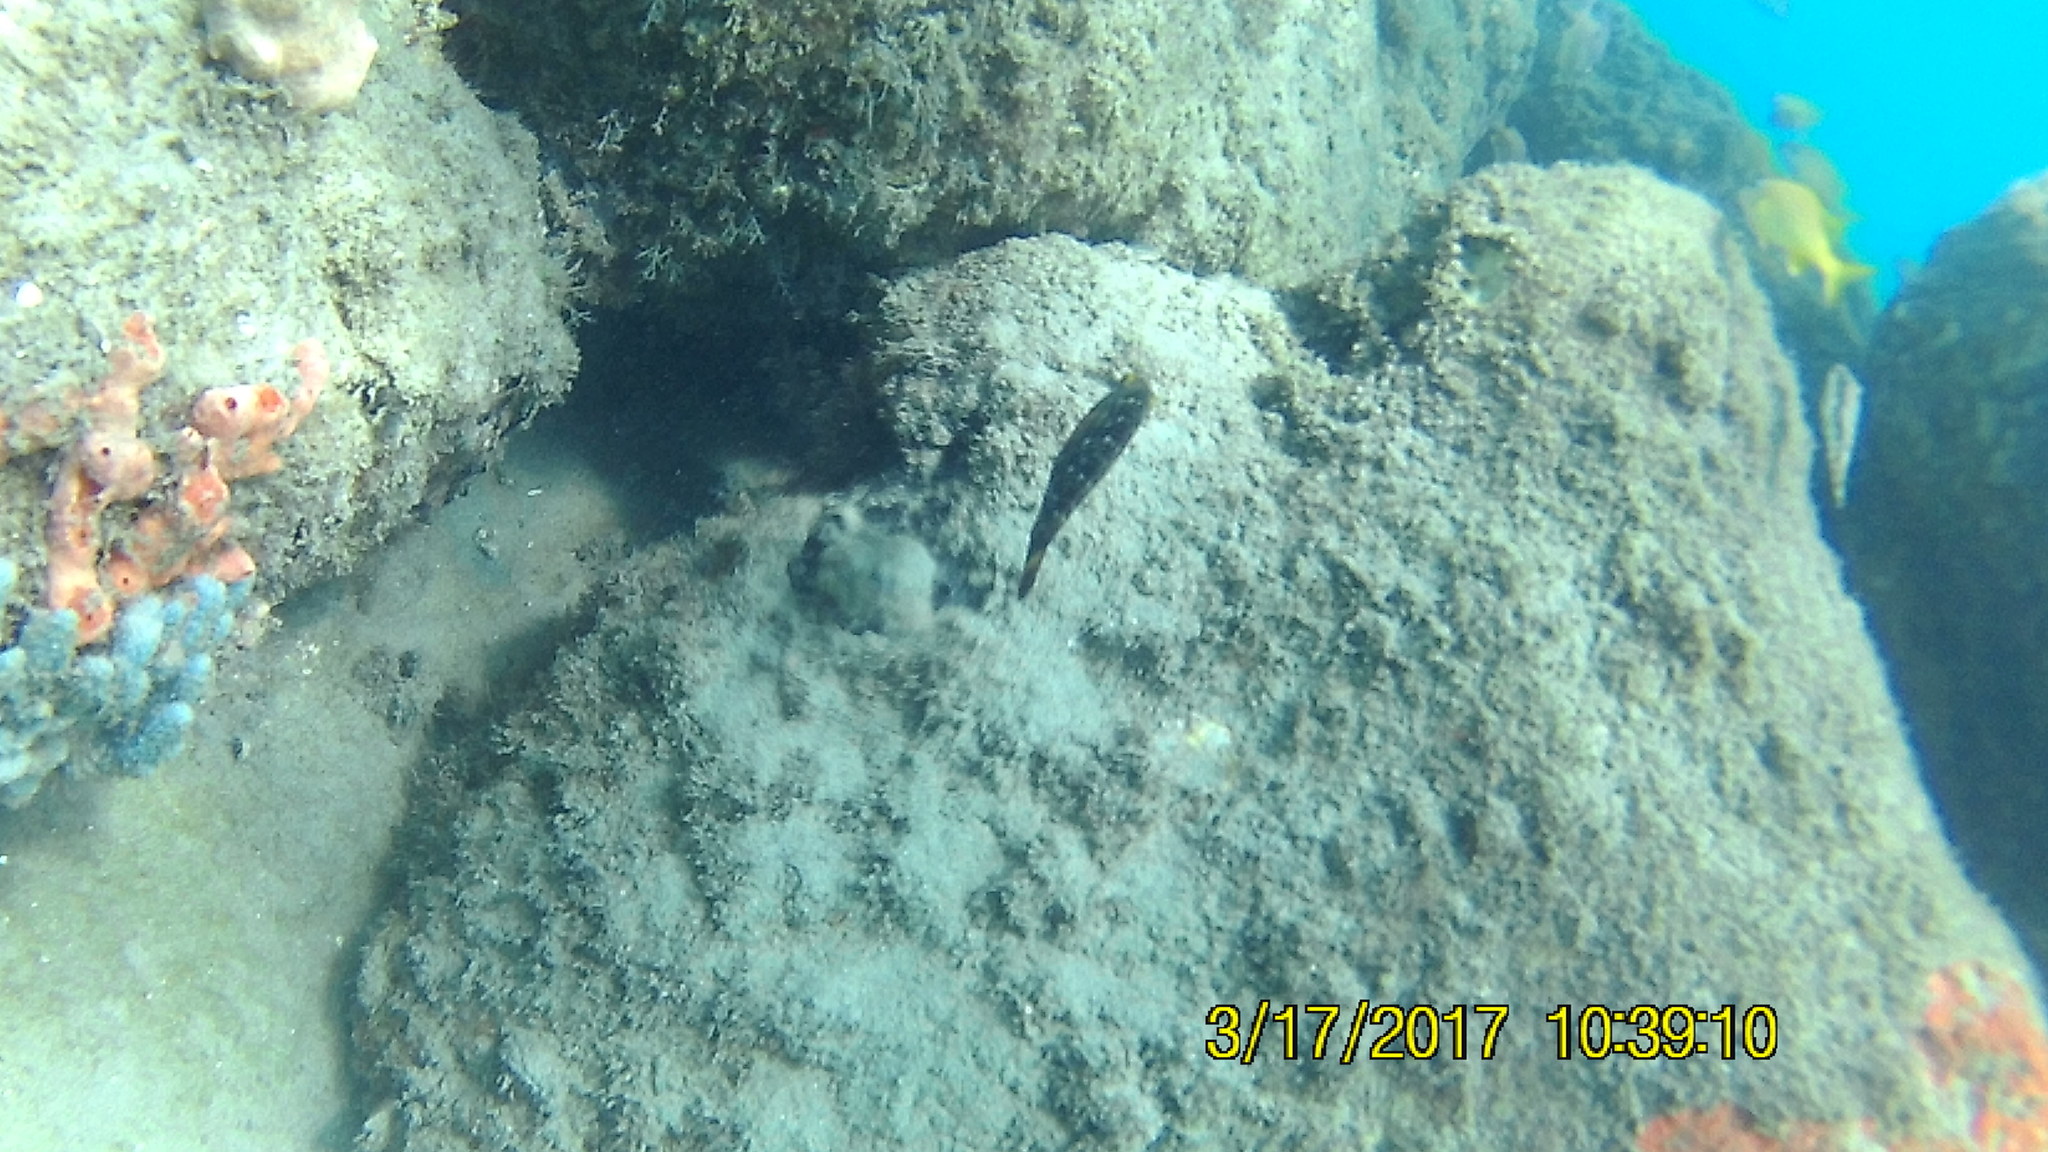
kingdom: Animalia
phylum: Chordata
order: Perciformes
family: Scaridae
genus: Sparisoma
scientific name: Sparisoma viride
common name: Stoplight parrotfish
